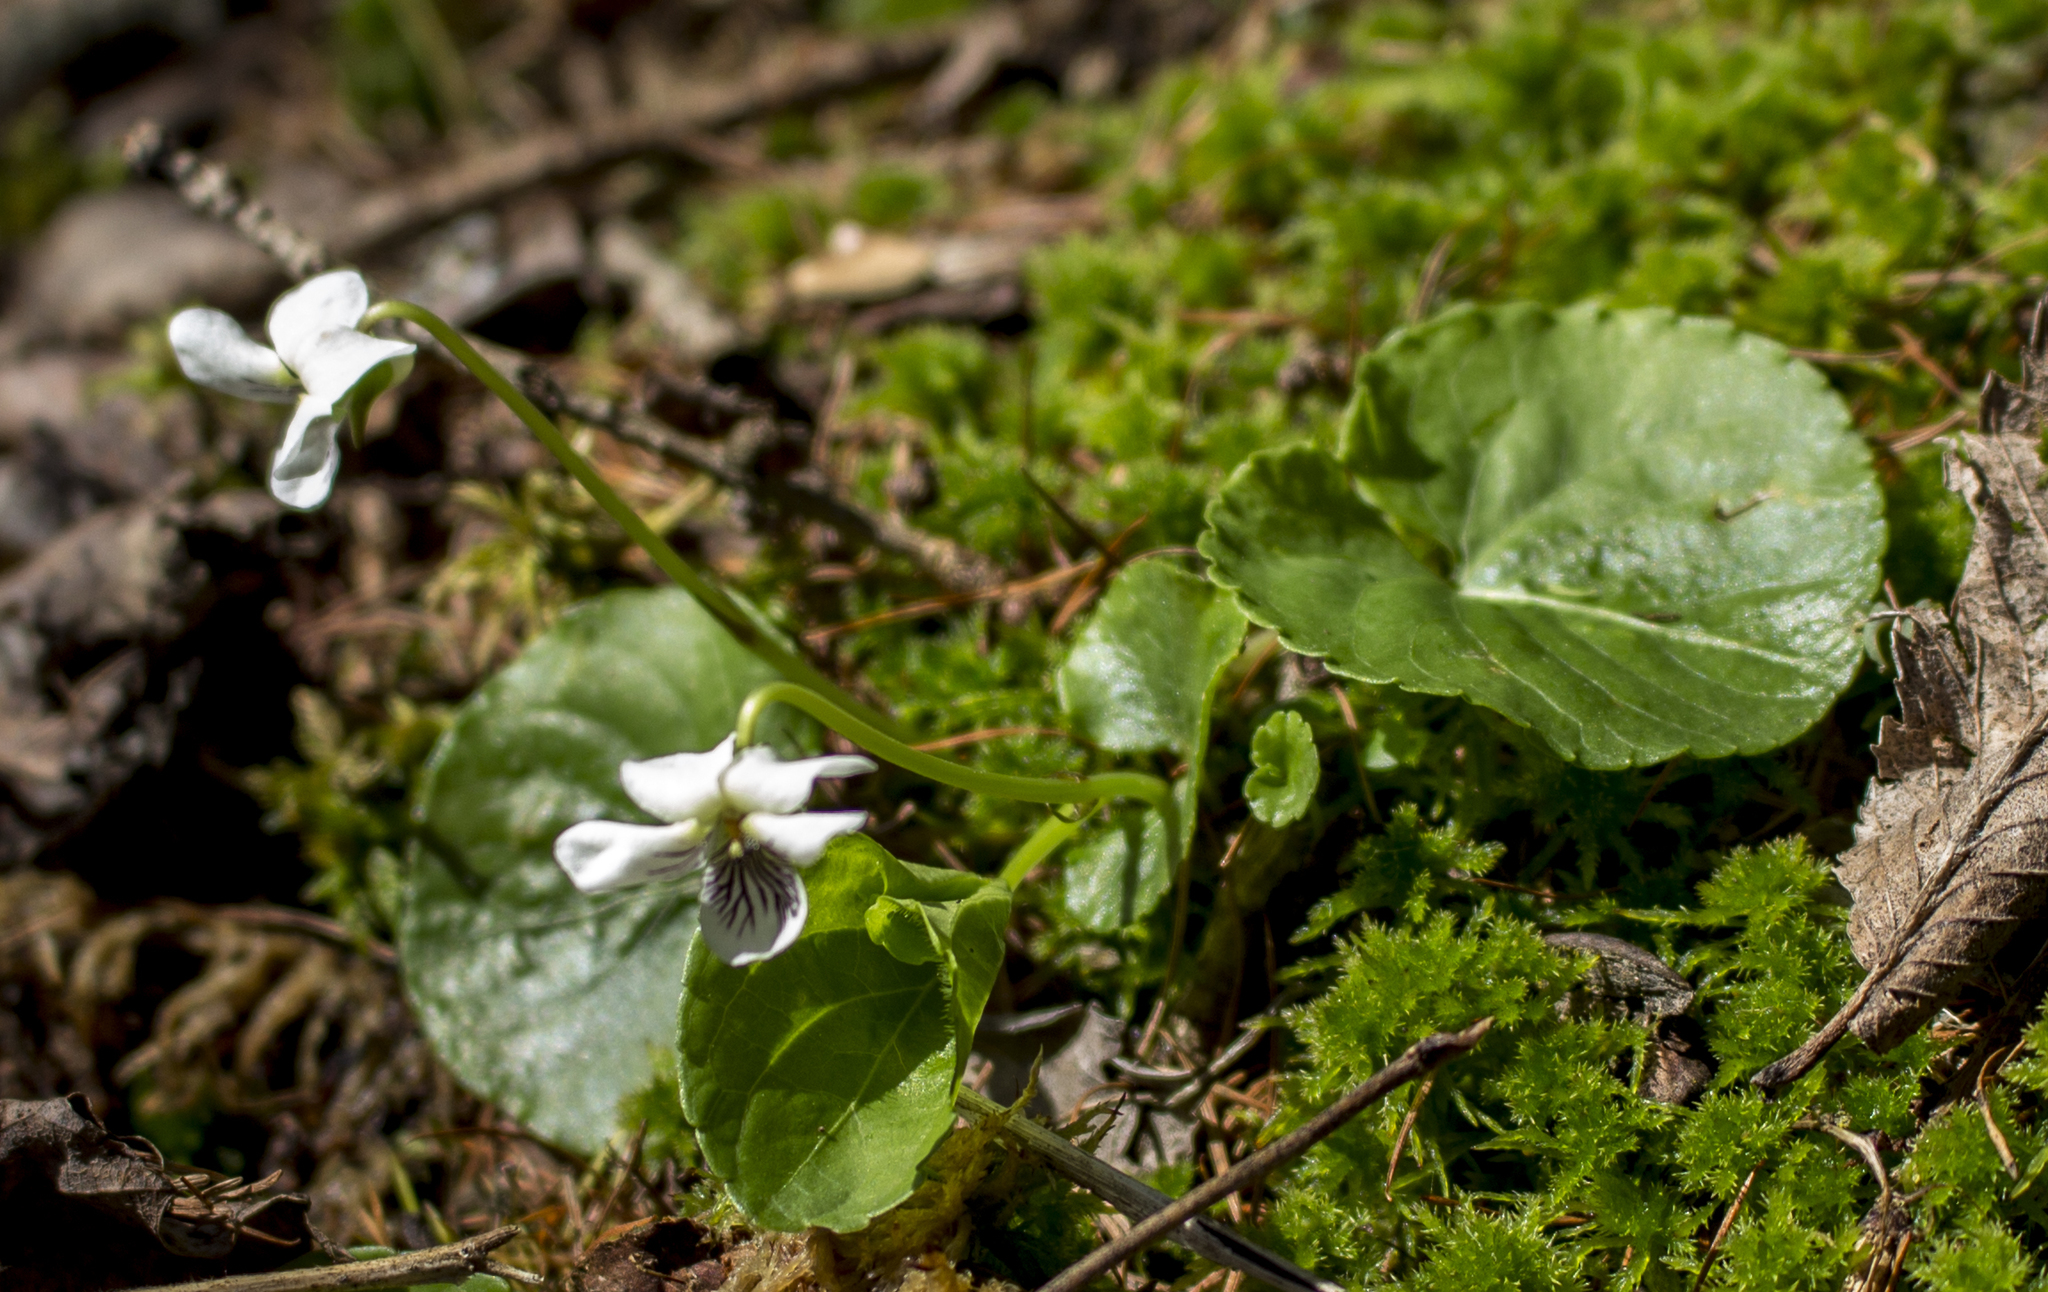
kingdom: Plantae
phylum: Tracheophyta
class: Magnoliopsida
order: Malpighiales
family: Violaceae
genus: Viola
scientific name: Viola blanda
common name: Sweet white violet
